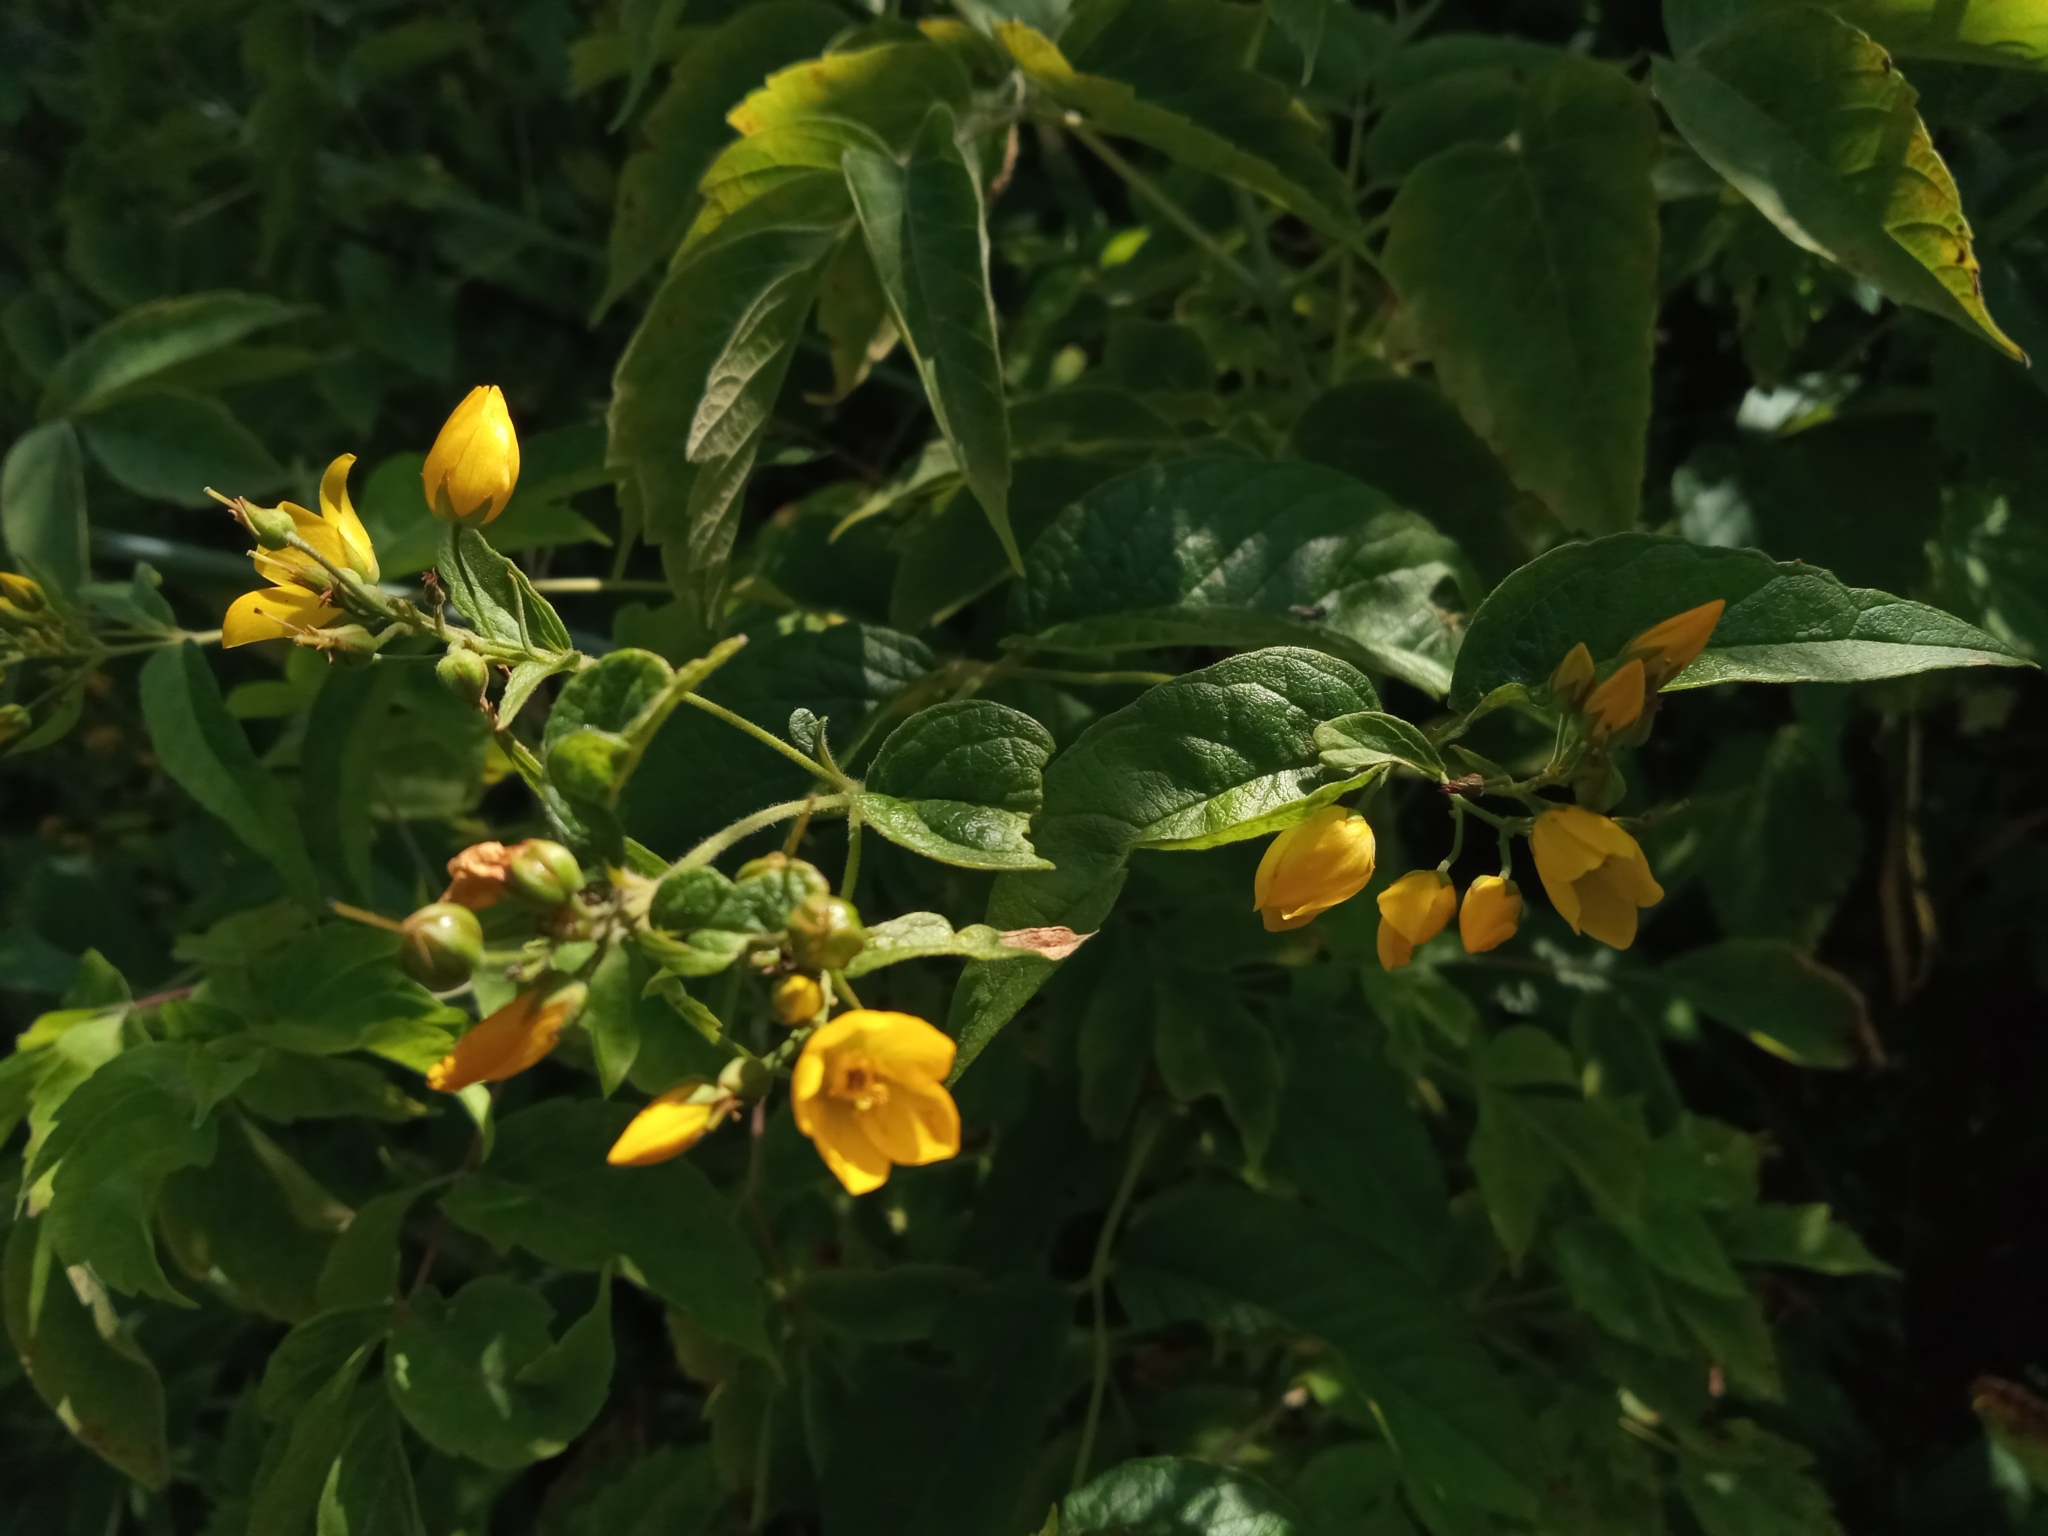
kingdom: Plantae
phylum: Tracheophyta
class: Magnoliopsida
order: Ericales
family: Primulaceae
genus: Lysimachia
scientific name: Lysimachia vulgaris
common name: Yellow loosestrife
